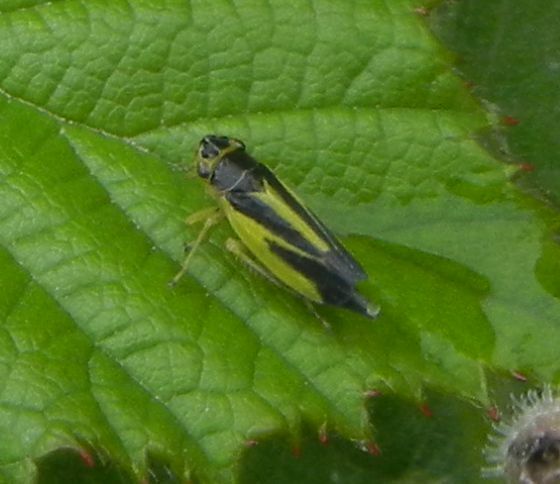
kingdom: Animalia
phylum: Arthropoda
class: Insecta
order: Hemiptera
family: Cicadellidae
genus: Evacanthus
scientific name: Evacanthus interruptus
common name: Leafhopper
